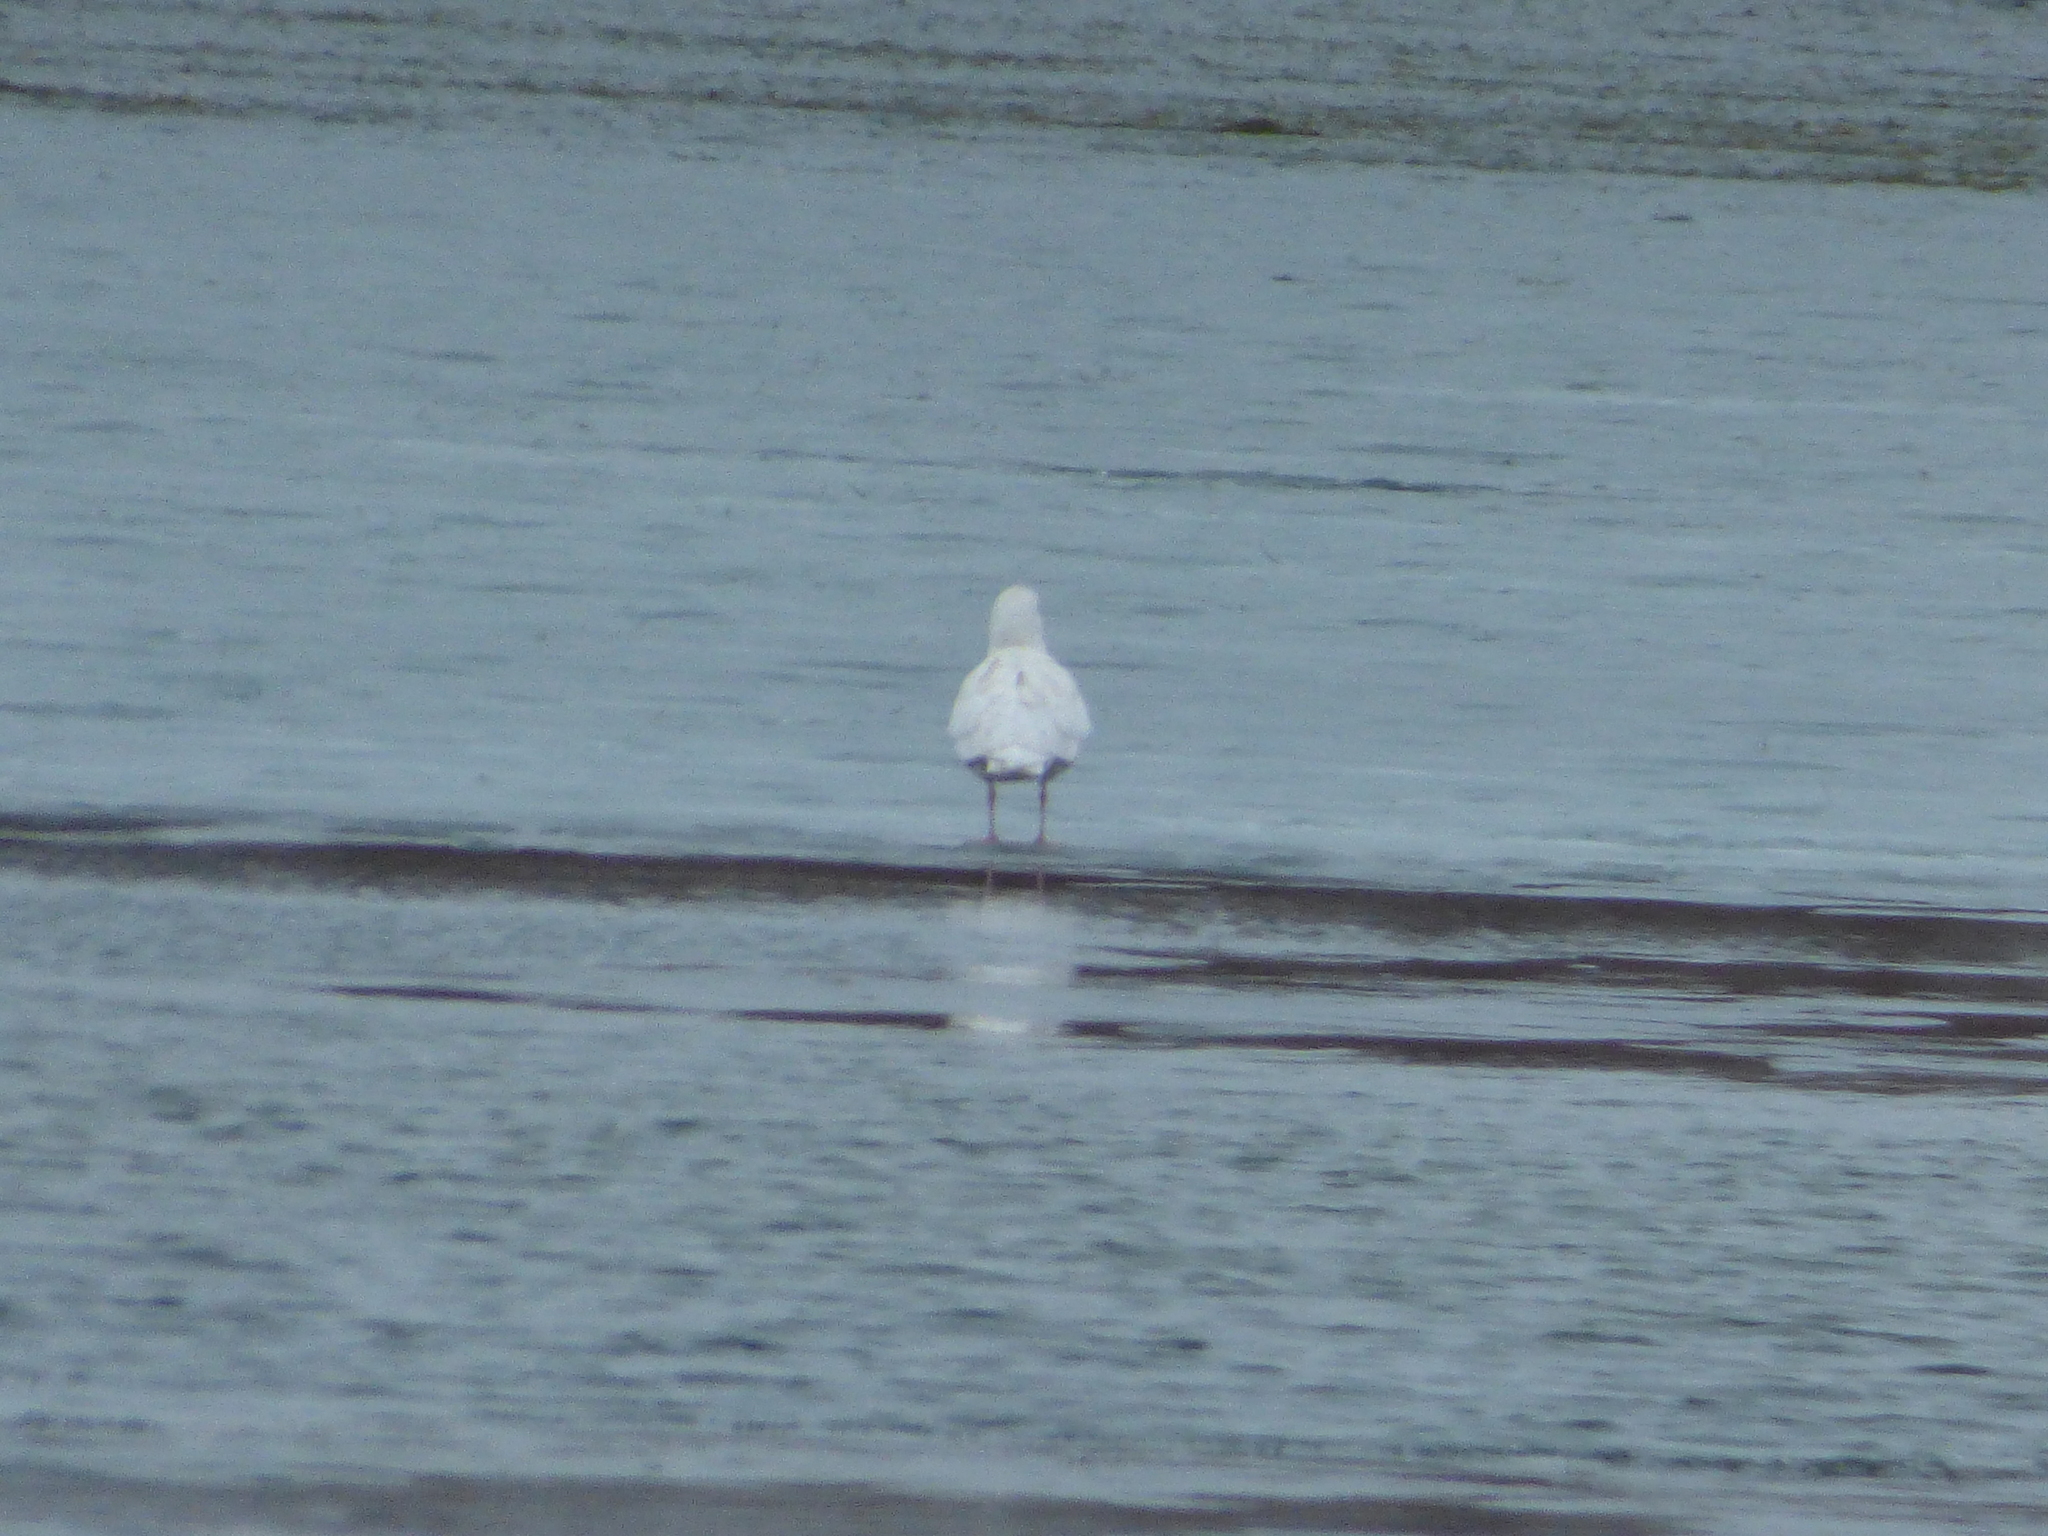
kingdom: Animalia
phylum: Chordata
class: Aves
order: Charadriiformes
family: Laridae
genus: Larus
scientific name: Larus hyperboreus
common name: Glaucous gull
